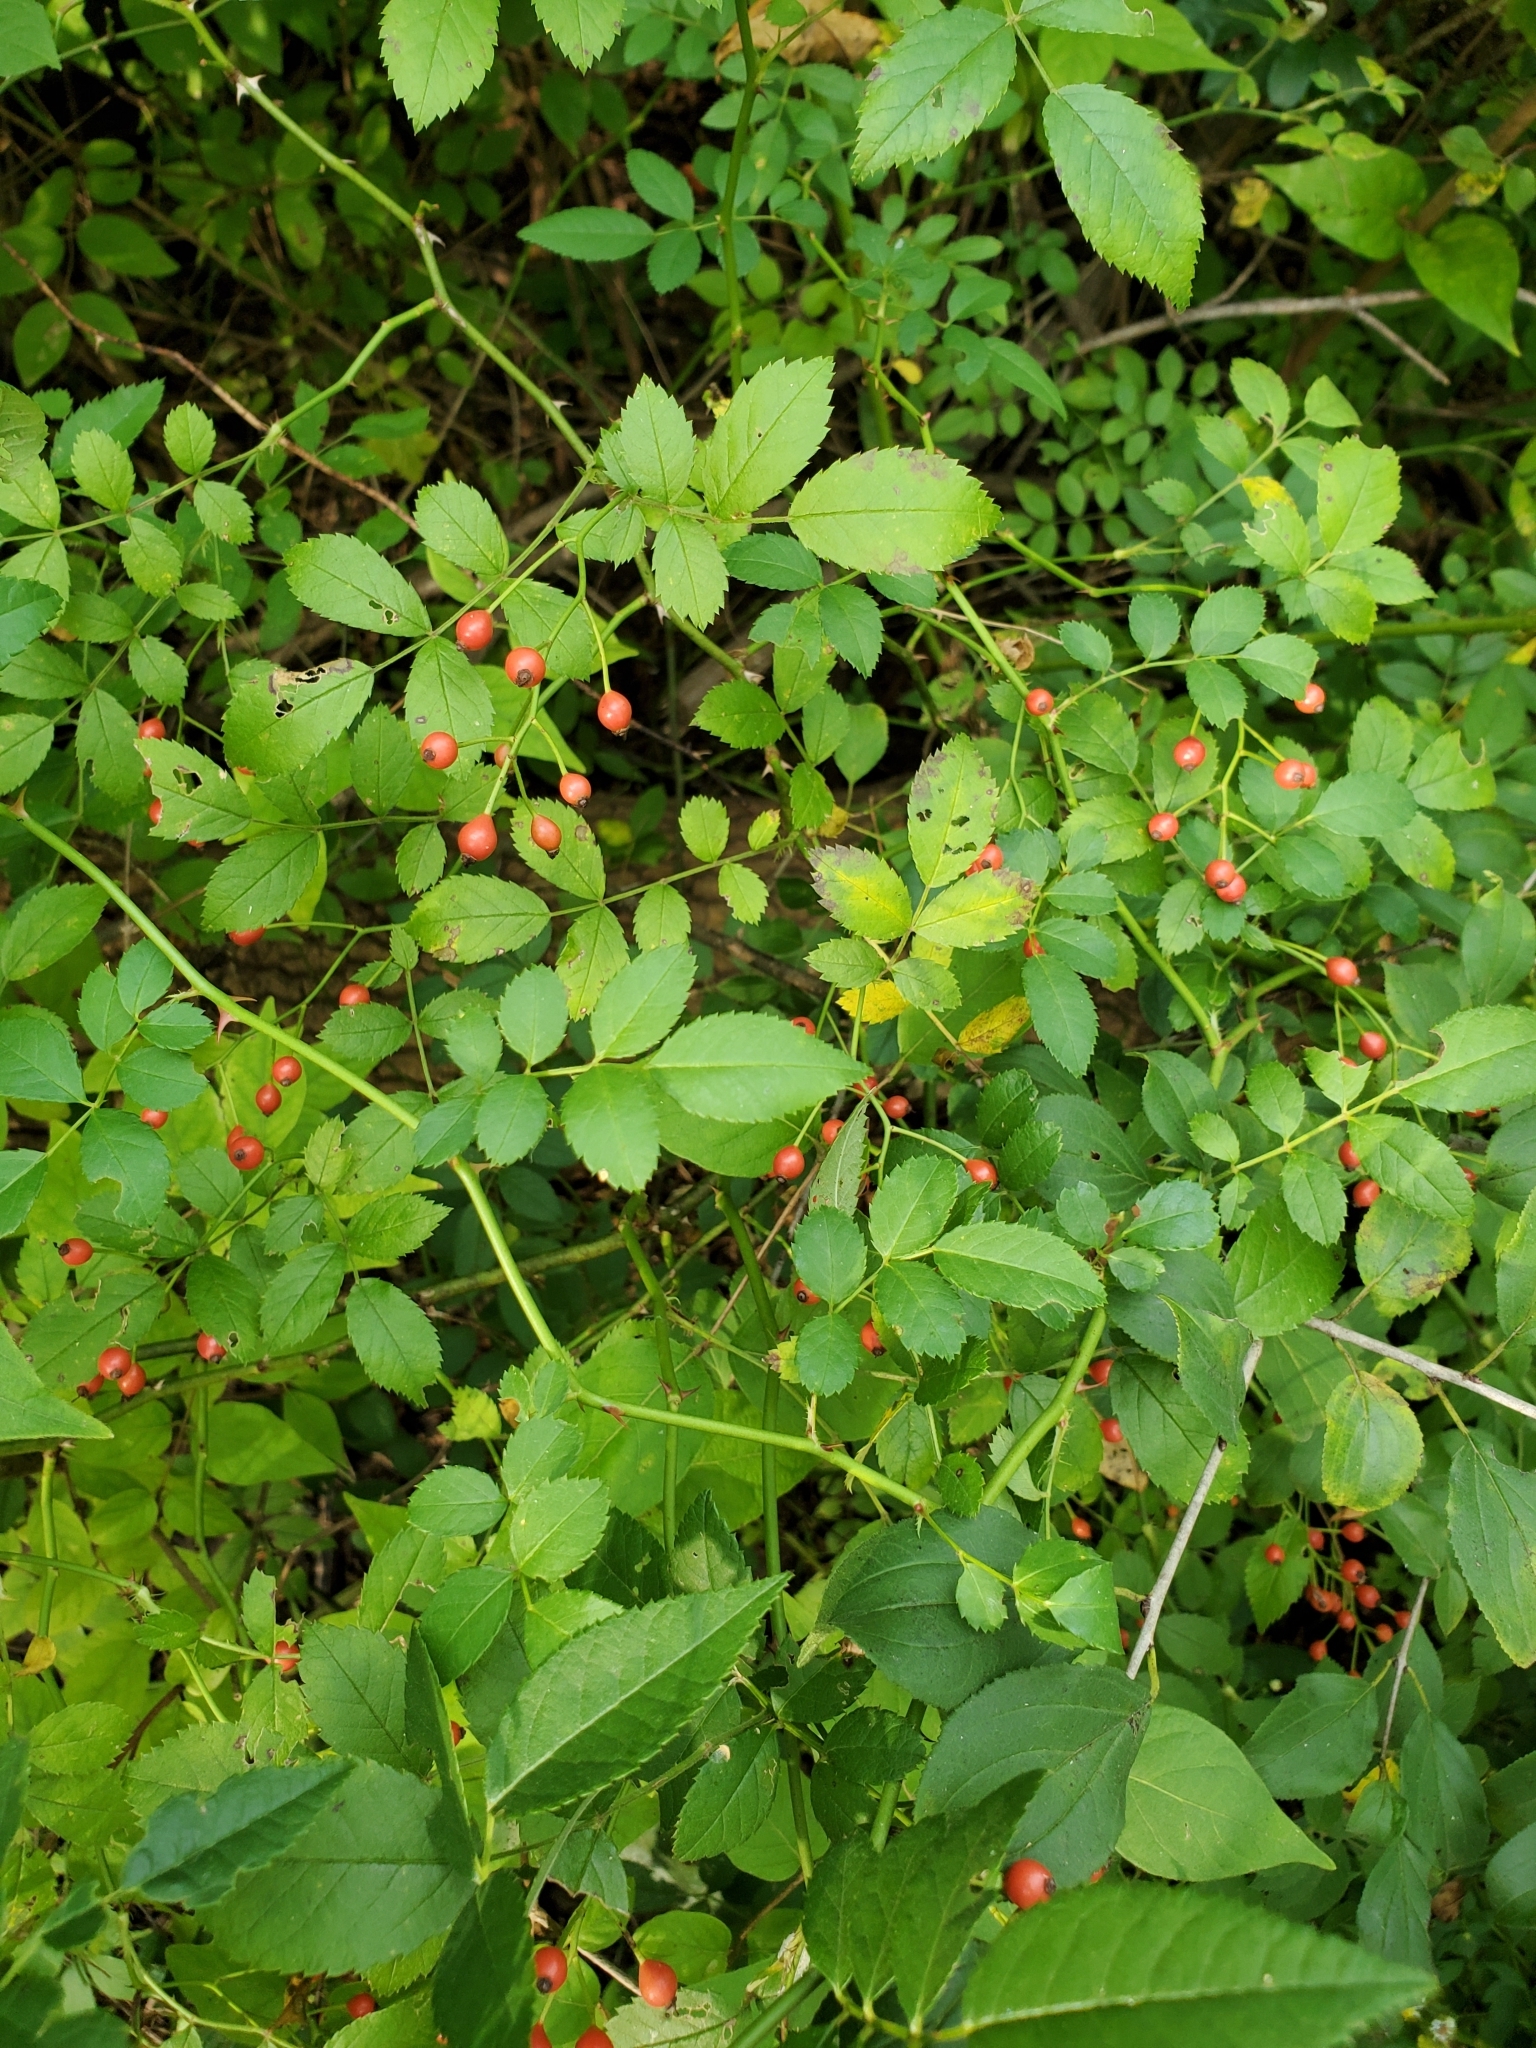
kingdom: Plantae
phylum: Tracheophyta
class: Magnoliopsida
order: Rosales
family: Rosaceae
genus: Rosa
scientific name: Rosa multiflora
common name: Multiflora rose
